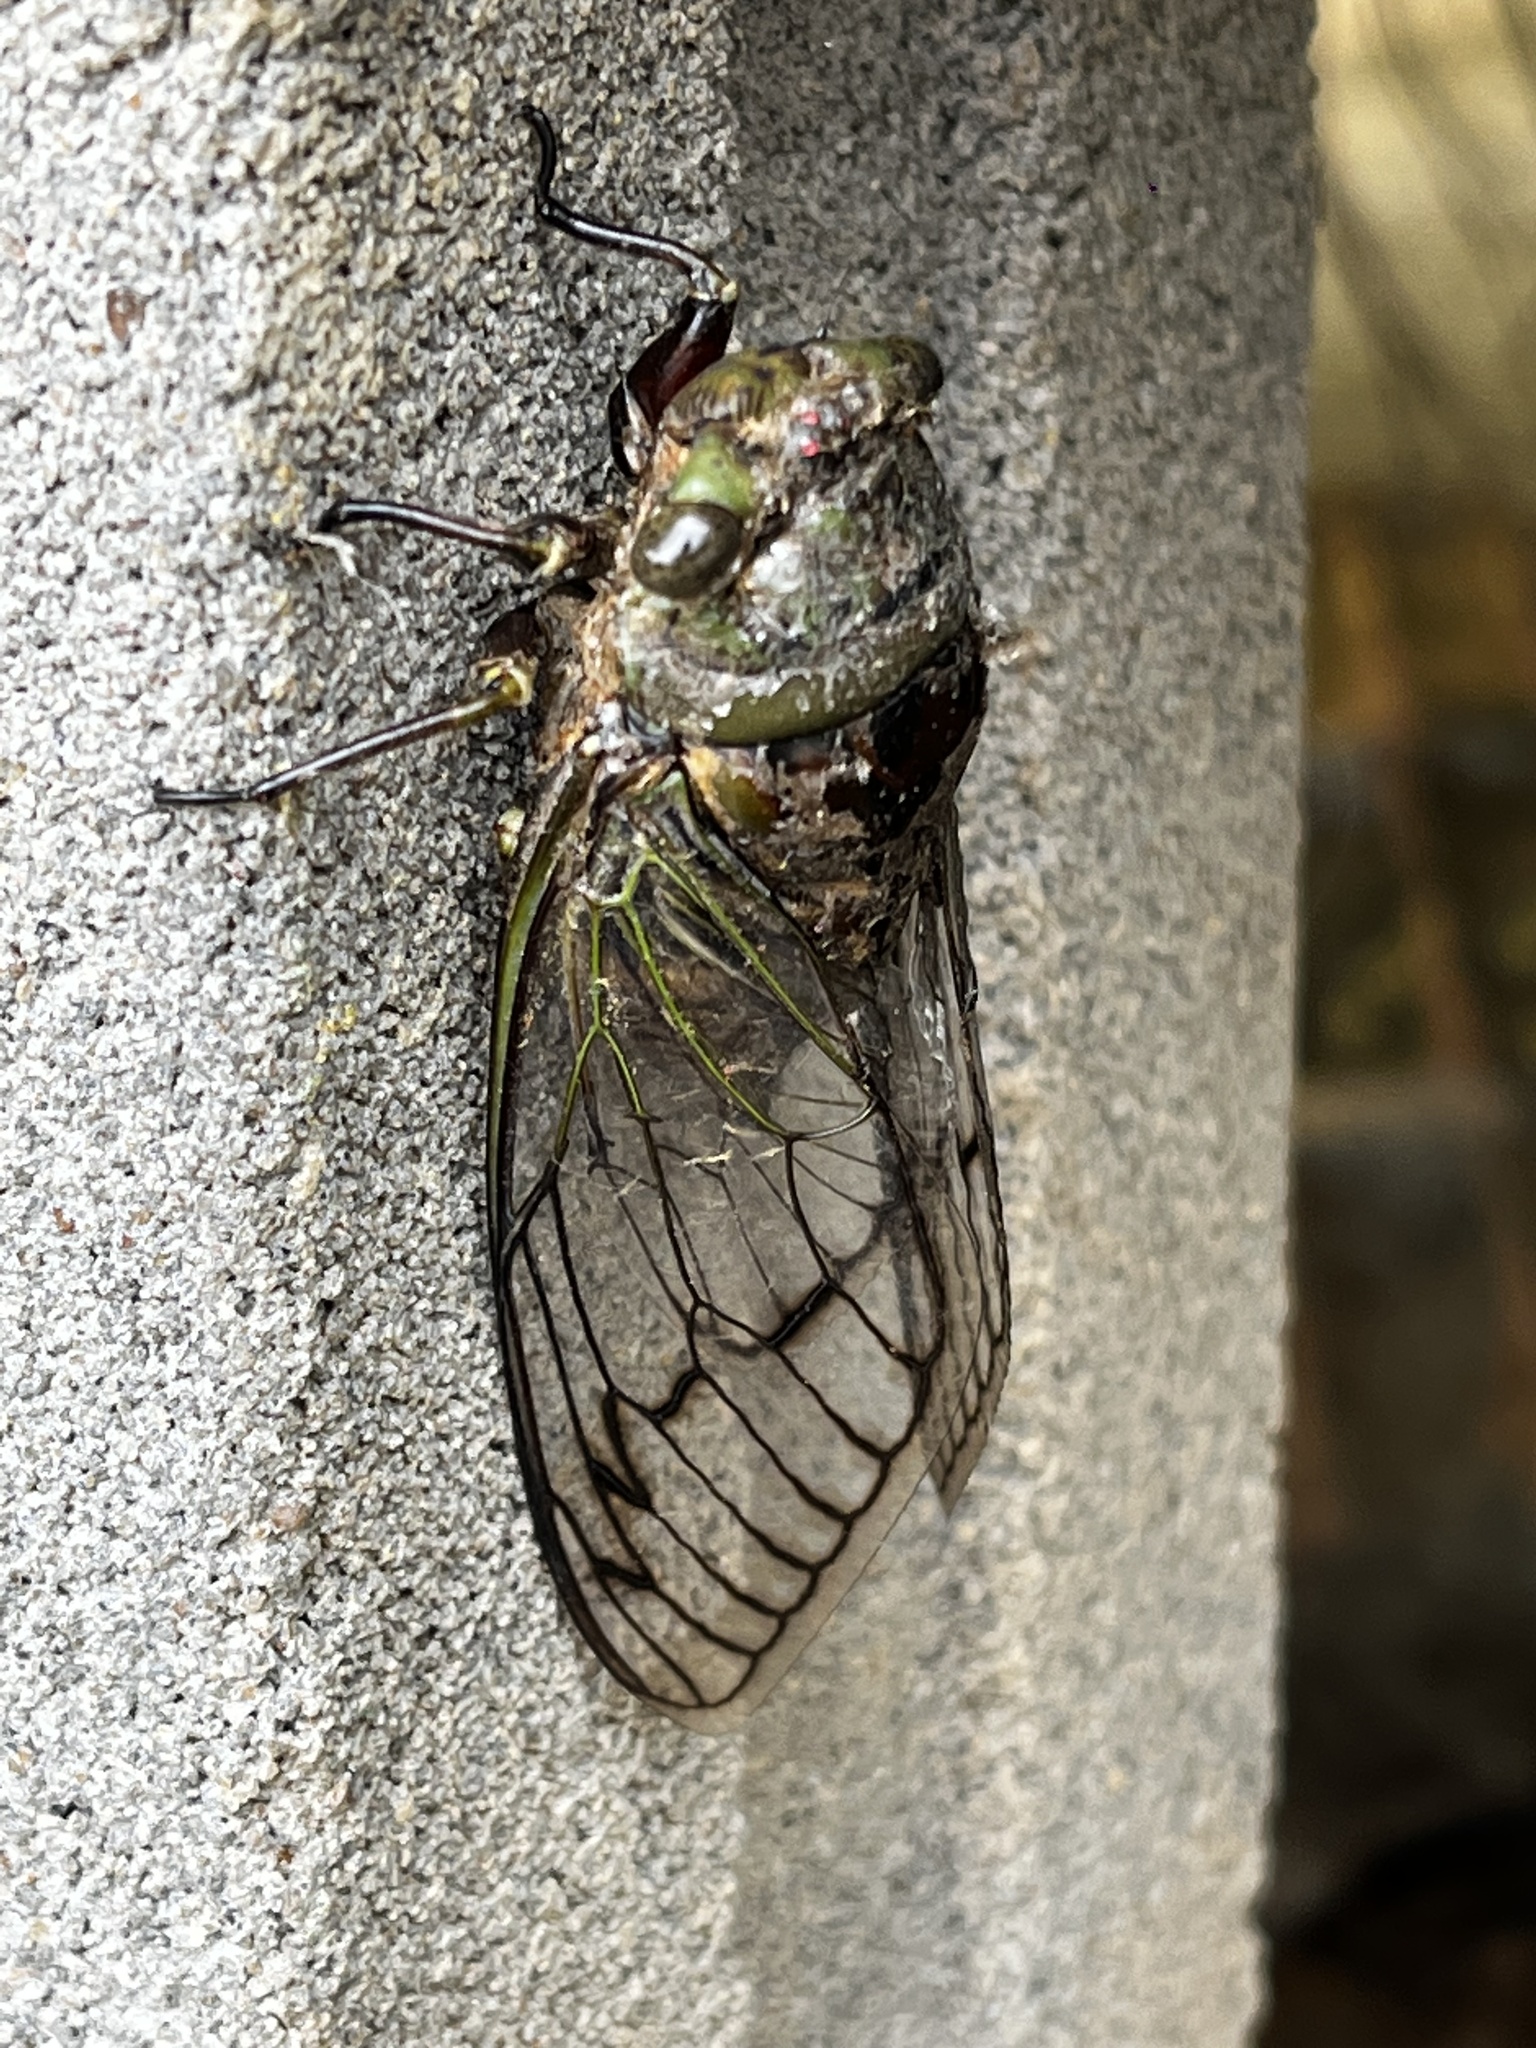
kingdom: Animalia
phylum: Arthropoda
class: Insecta
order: Hemiptera
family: Cicadidae
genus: Fidicina
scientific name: Fidicina toulgoeti
